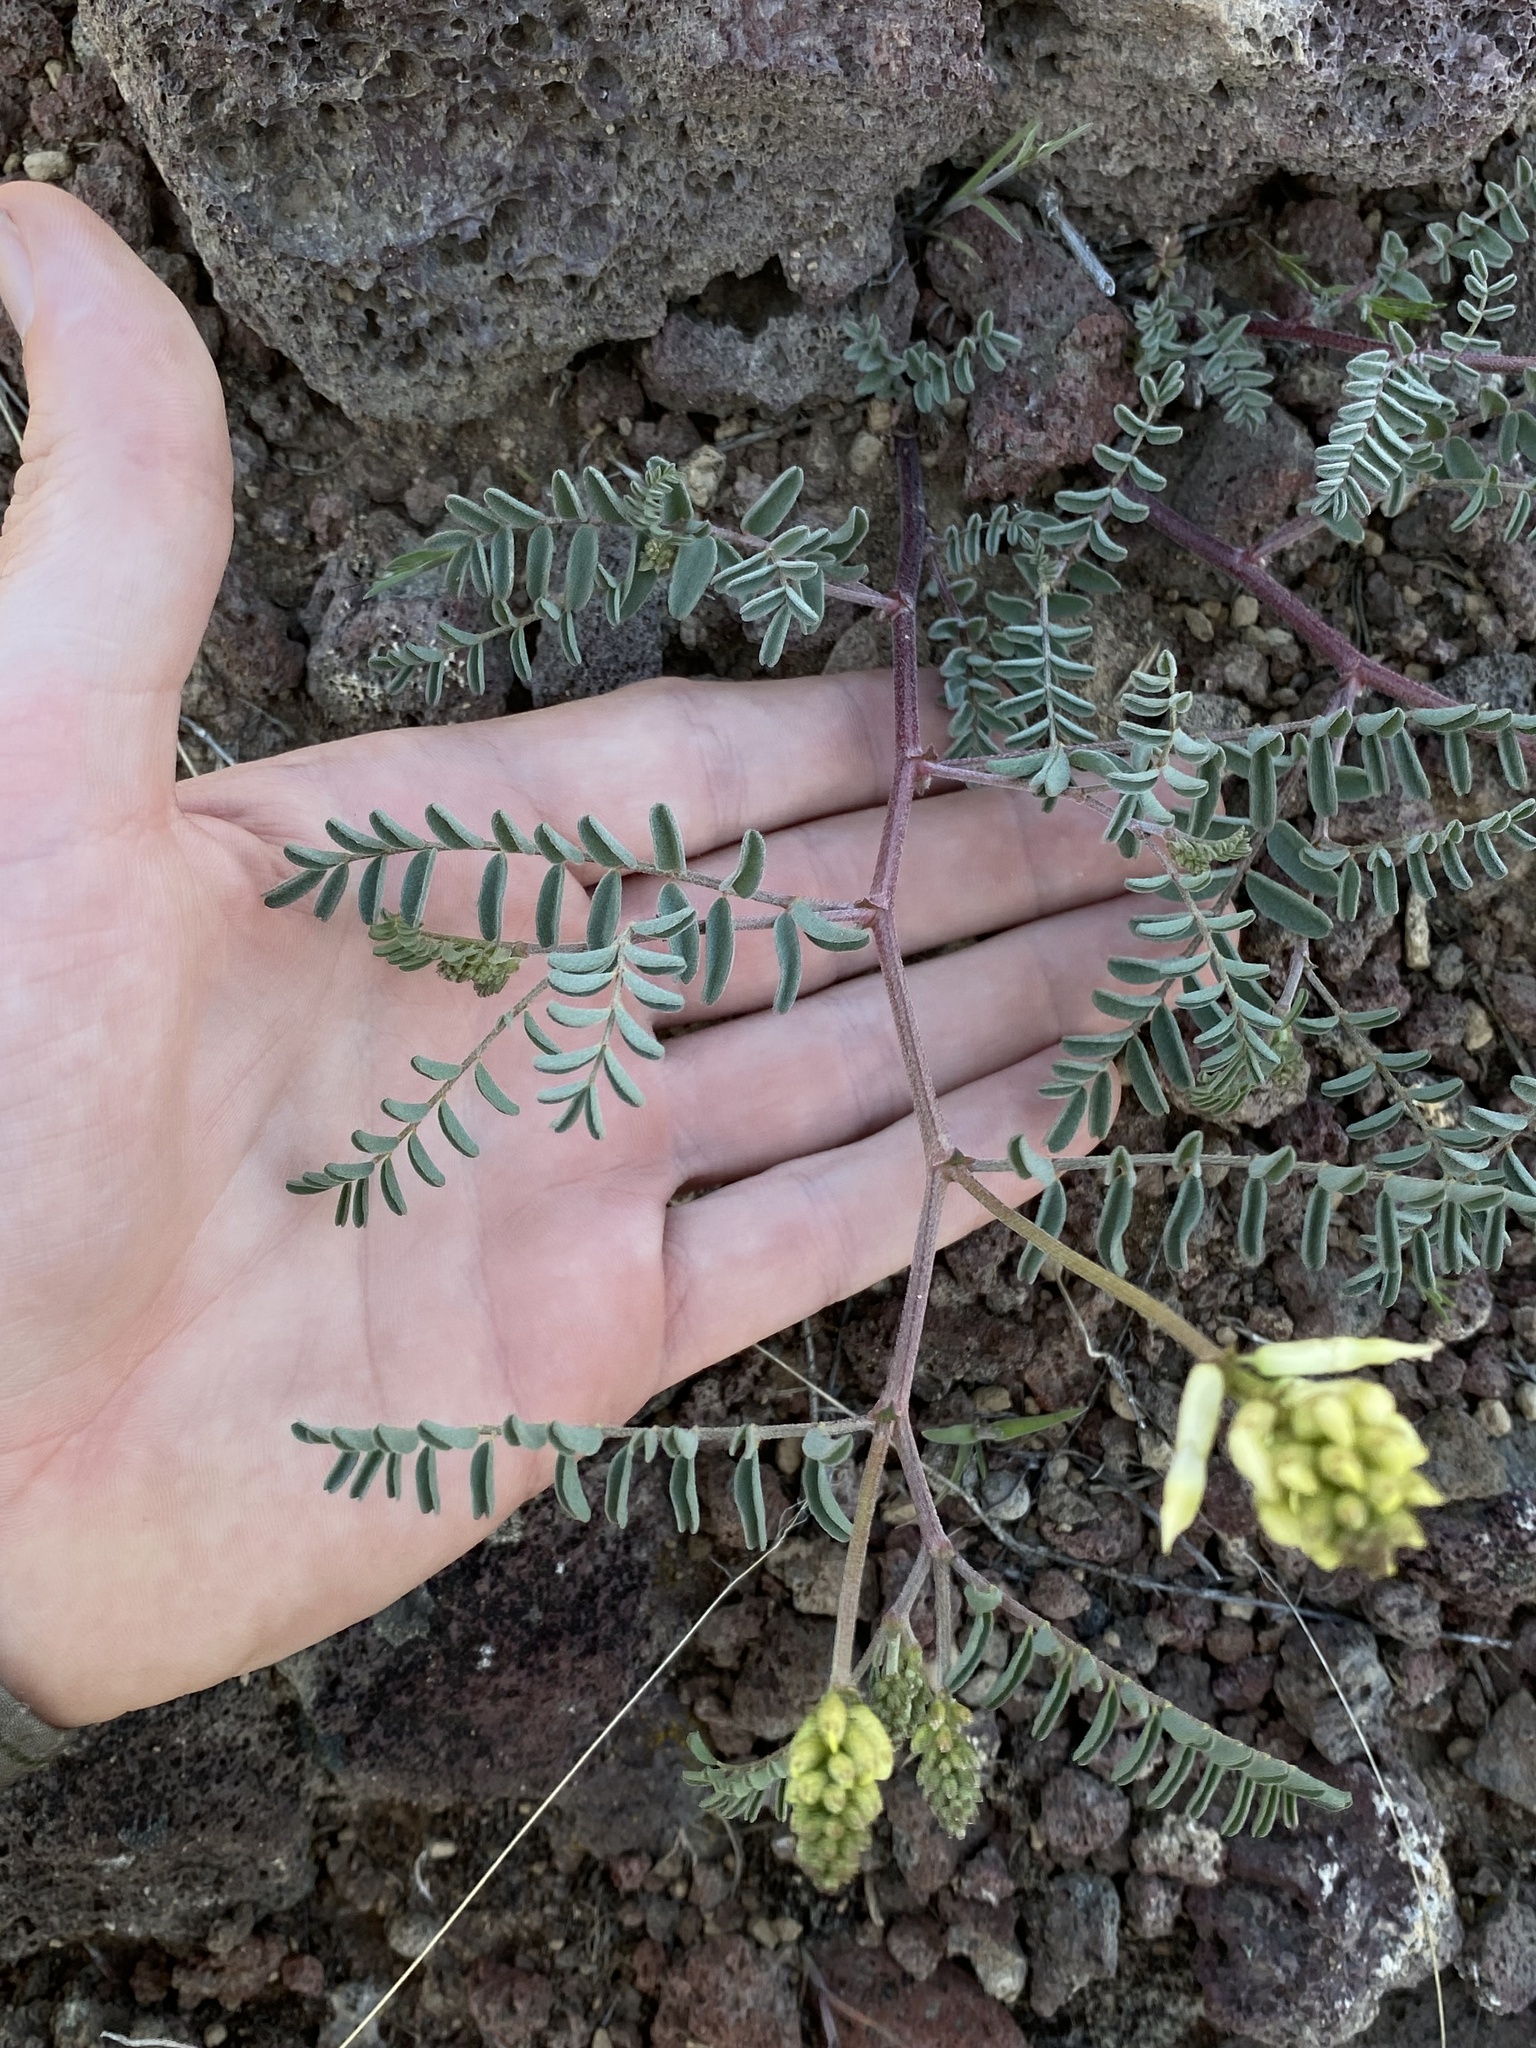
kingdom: Plantae
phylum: Tracheophyta
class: Magnoliopsida
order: Fabales
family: Fabaceae
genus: Astragalus
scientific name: Astragalus curvicarpus
